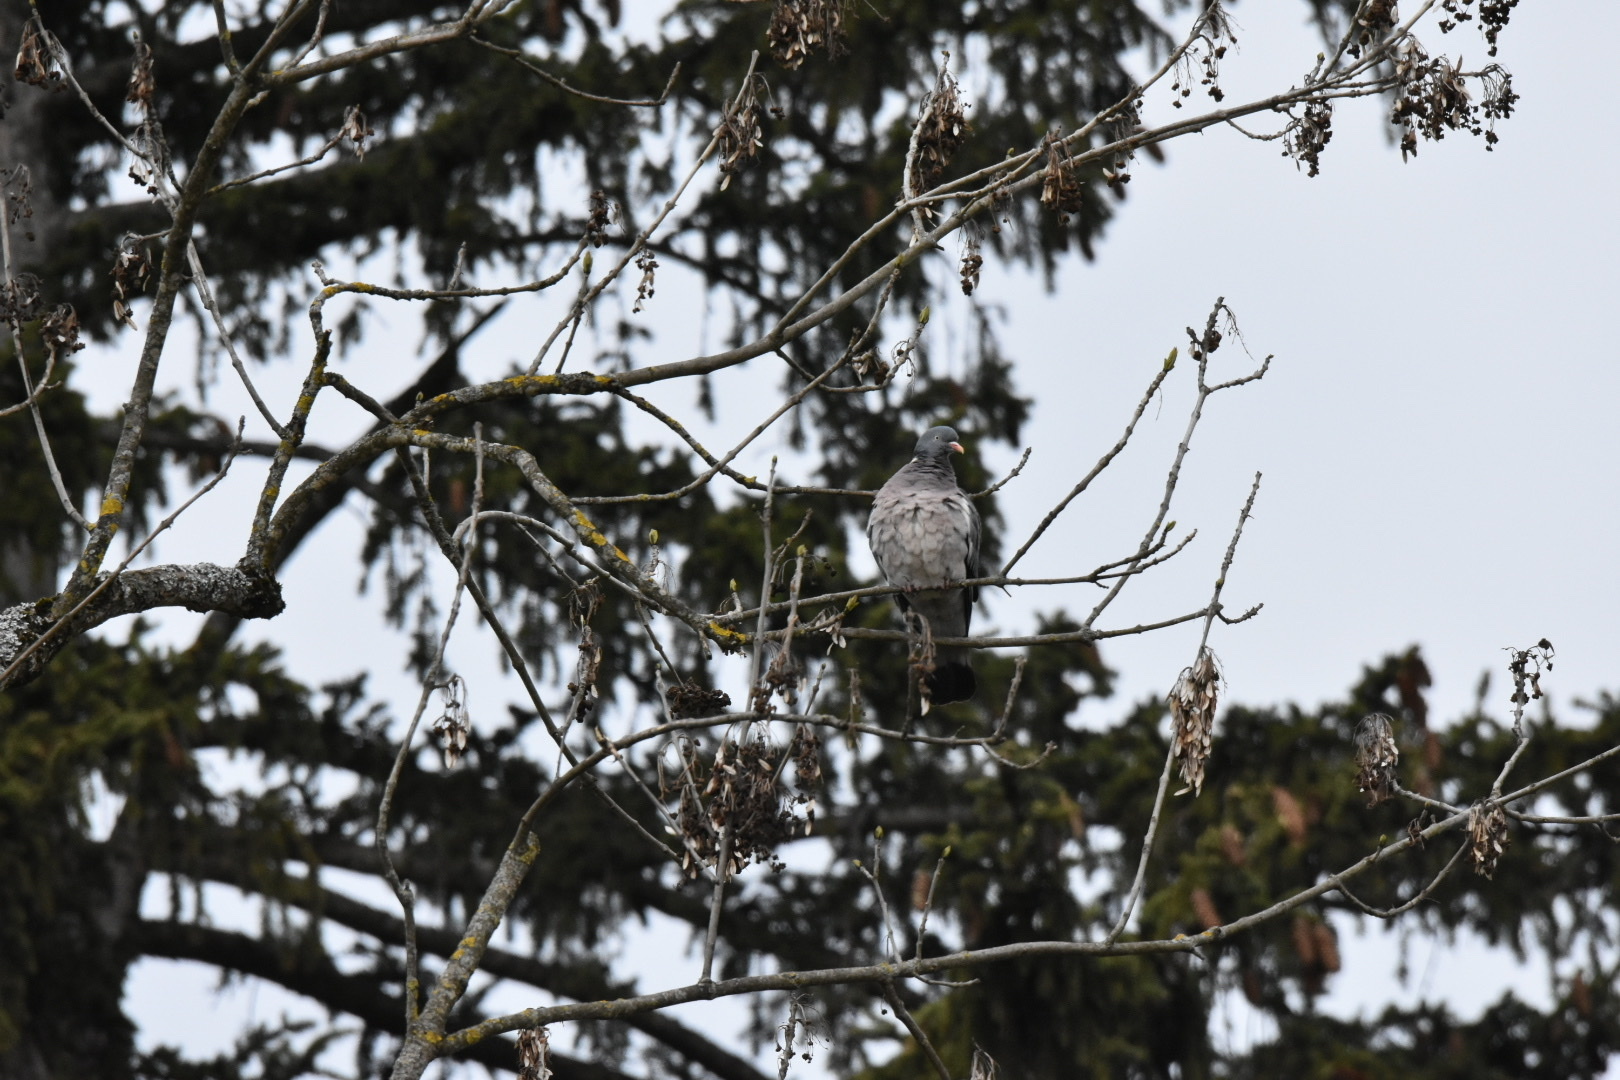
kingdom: Animalia
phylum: Chordata
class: Aves
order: Columbiformes
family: Columbidae
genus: Columba
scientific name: Columba palumbus
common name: Common wood pigeon
